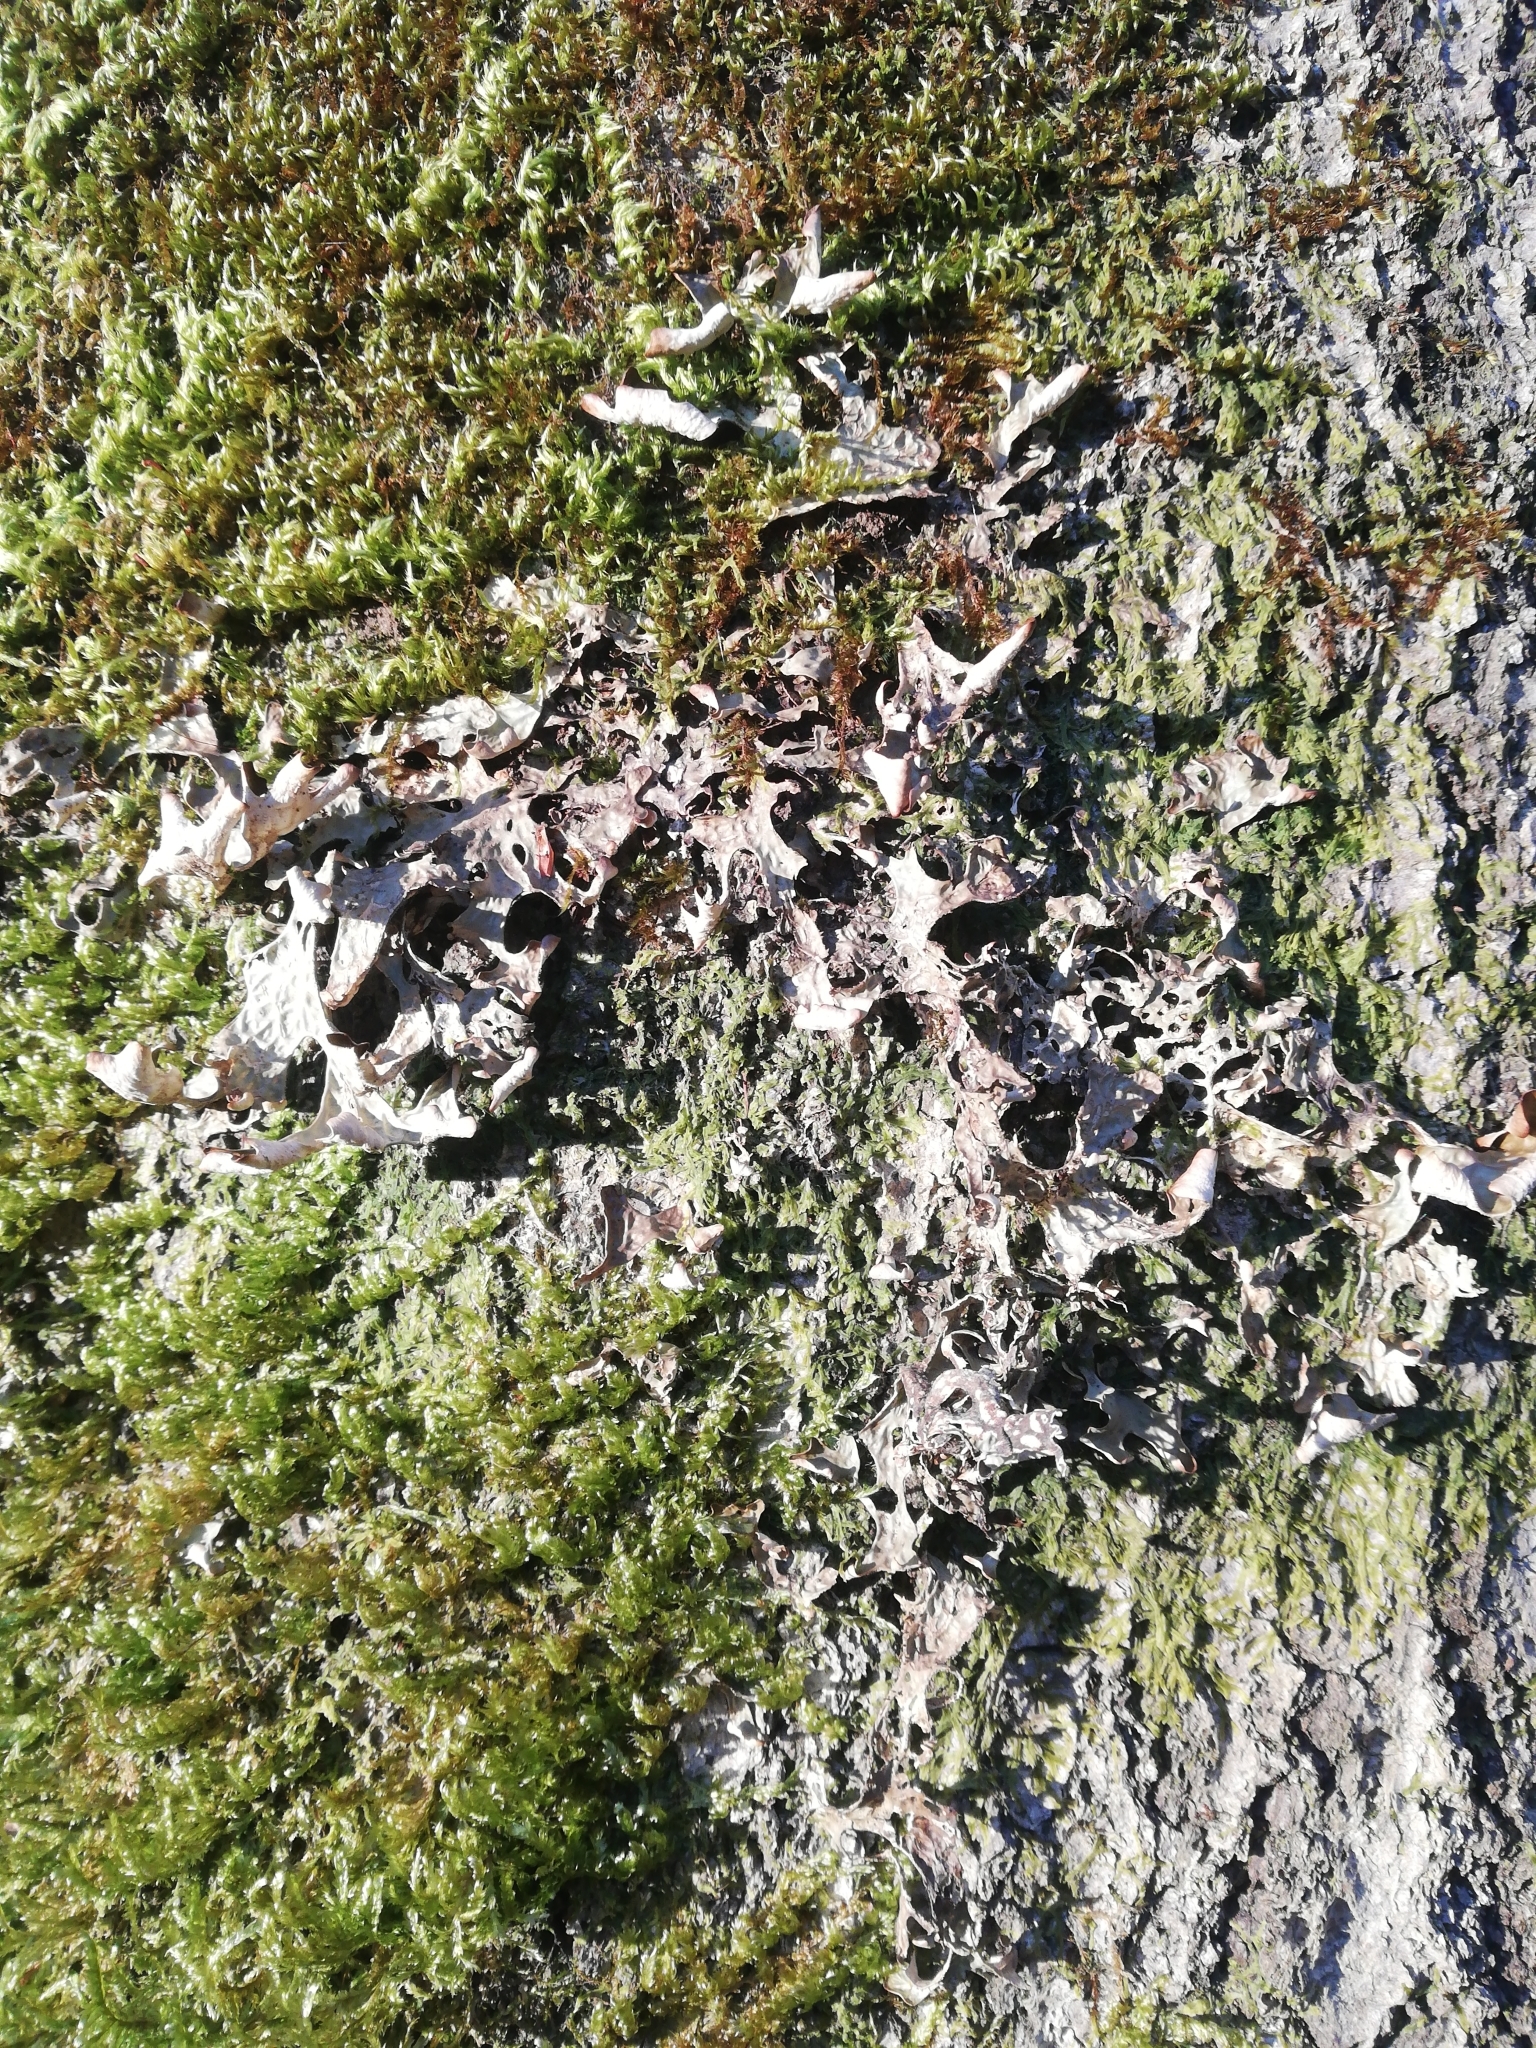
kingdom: Fungi
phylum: Ascomycota
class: Lecanoromycetes
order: Peltigerales
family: Lobariaceae
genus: Lobaria
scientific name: Lobaria pulmonaria
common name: Lungwort
